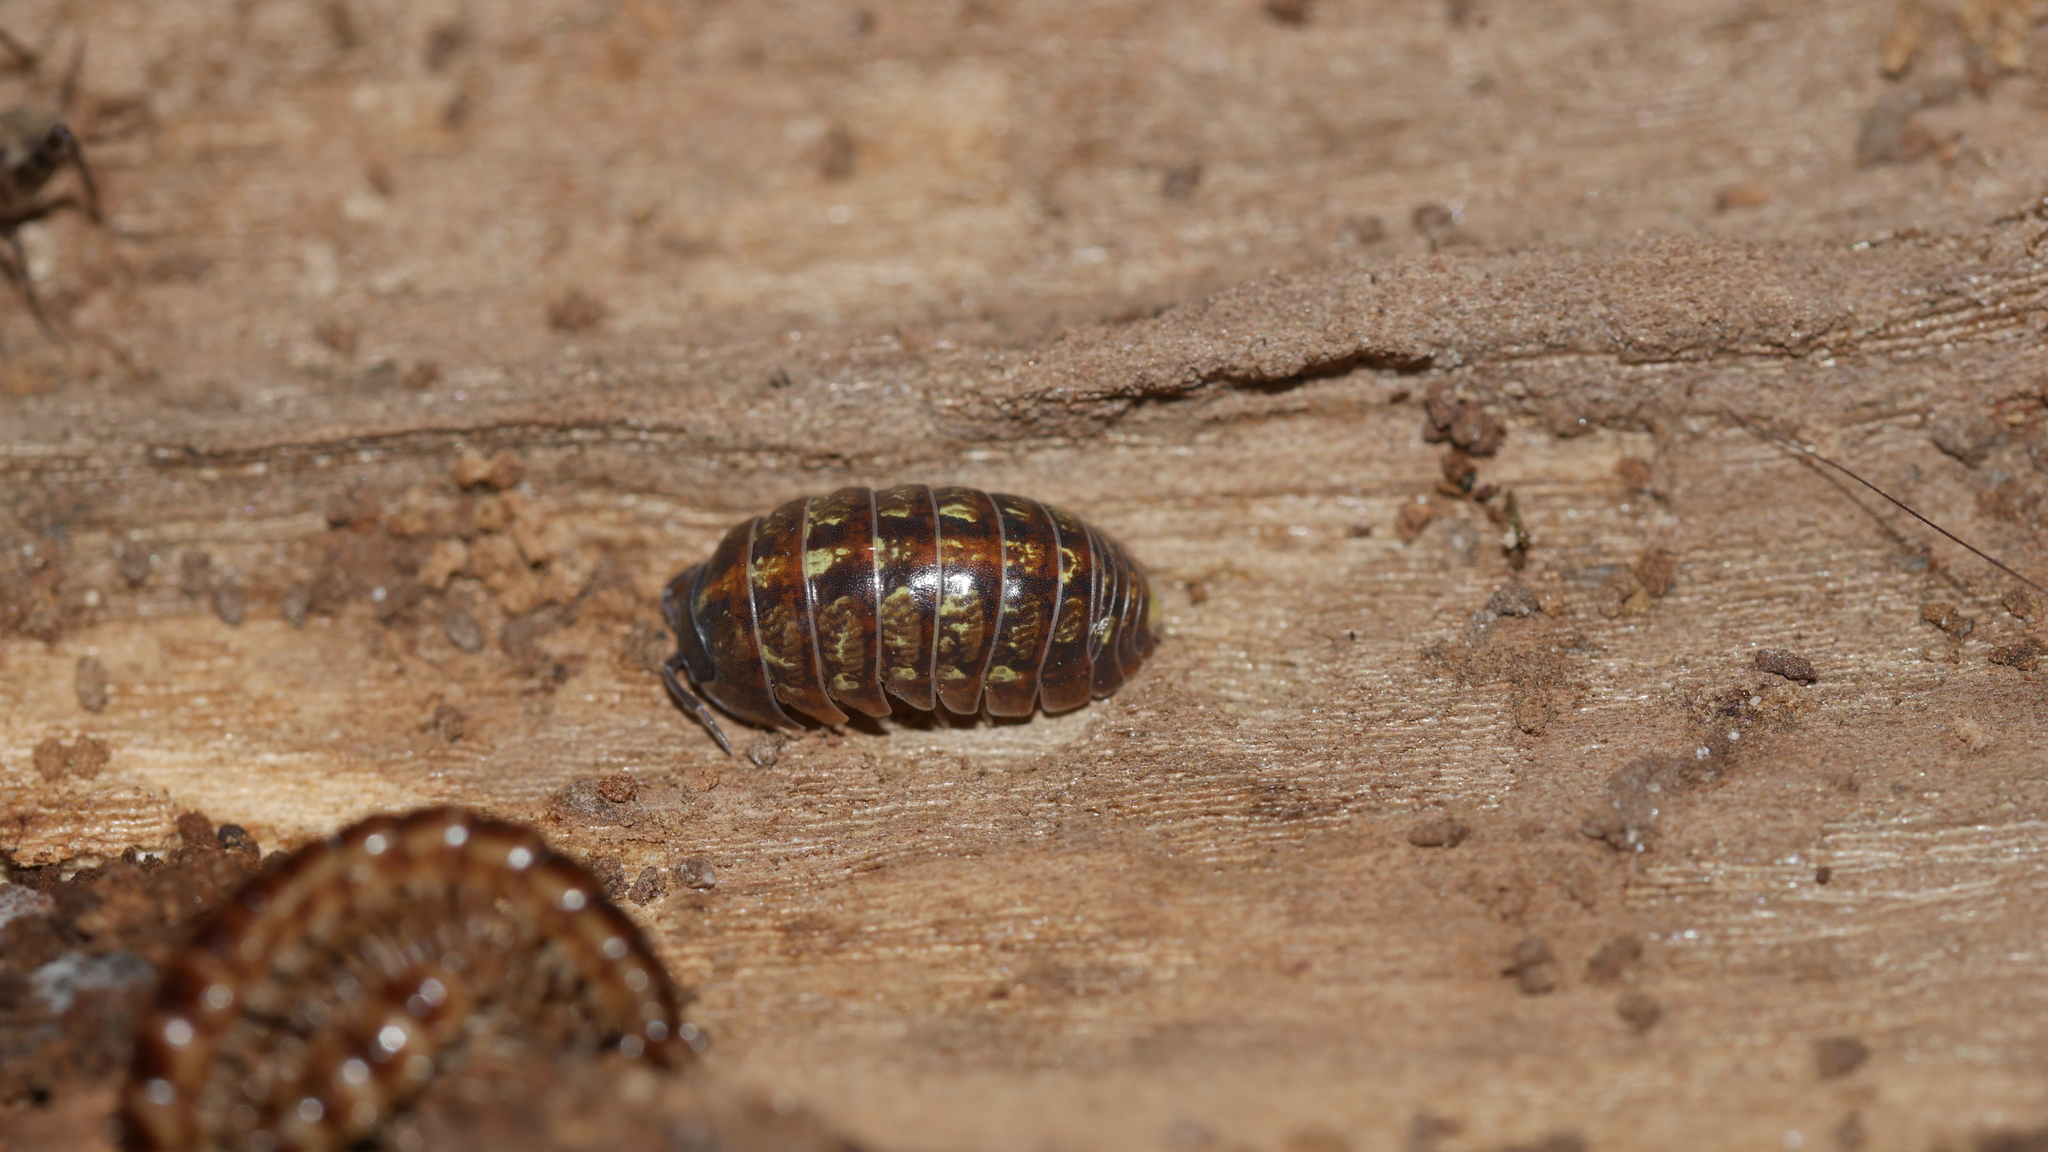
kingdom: Animalia
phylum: Arthropoda
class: Malacostraca
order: Isopoda
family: Armadillidiidae
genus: Armadillidium
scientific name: Armadillidium vulgare
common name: Common pill woodlouse
